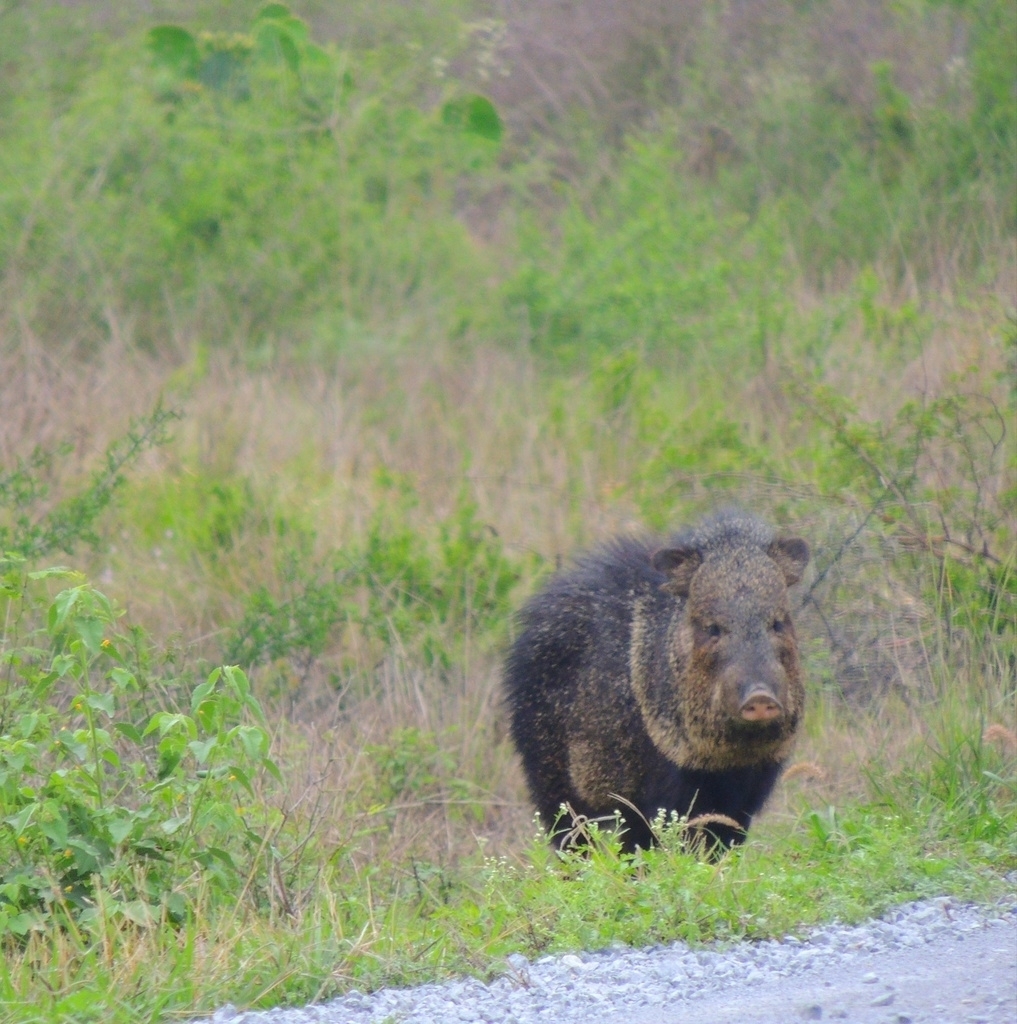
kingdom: Animalia
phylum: Chordata
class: Mammalia
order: Artiodactyla
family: Tayassuidae
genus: Pecari
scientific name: Pecari tajacu
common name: Collared peccary
